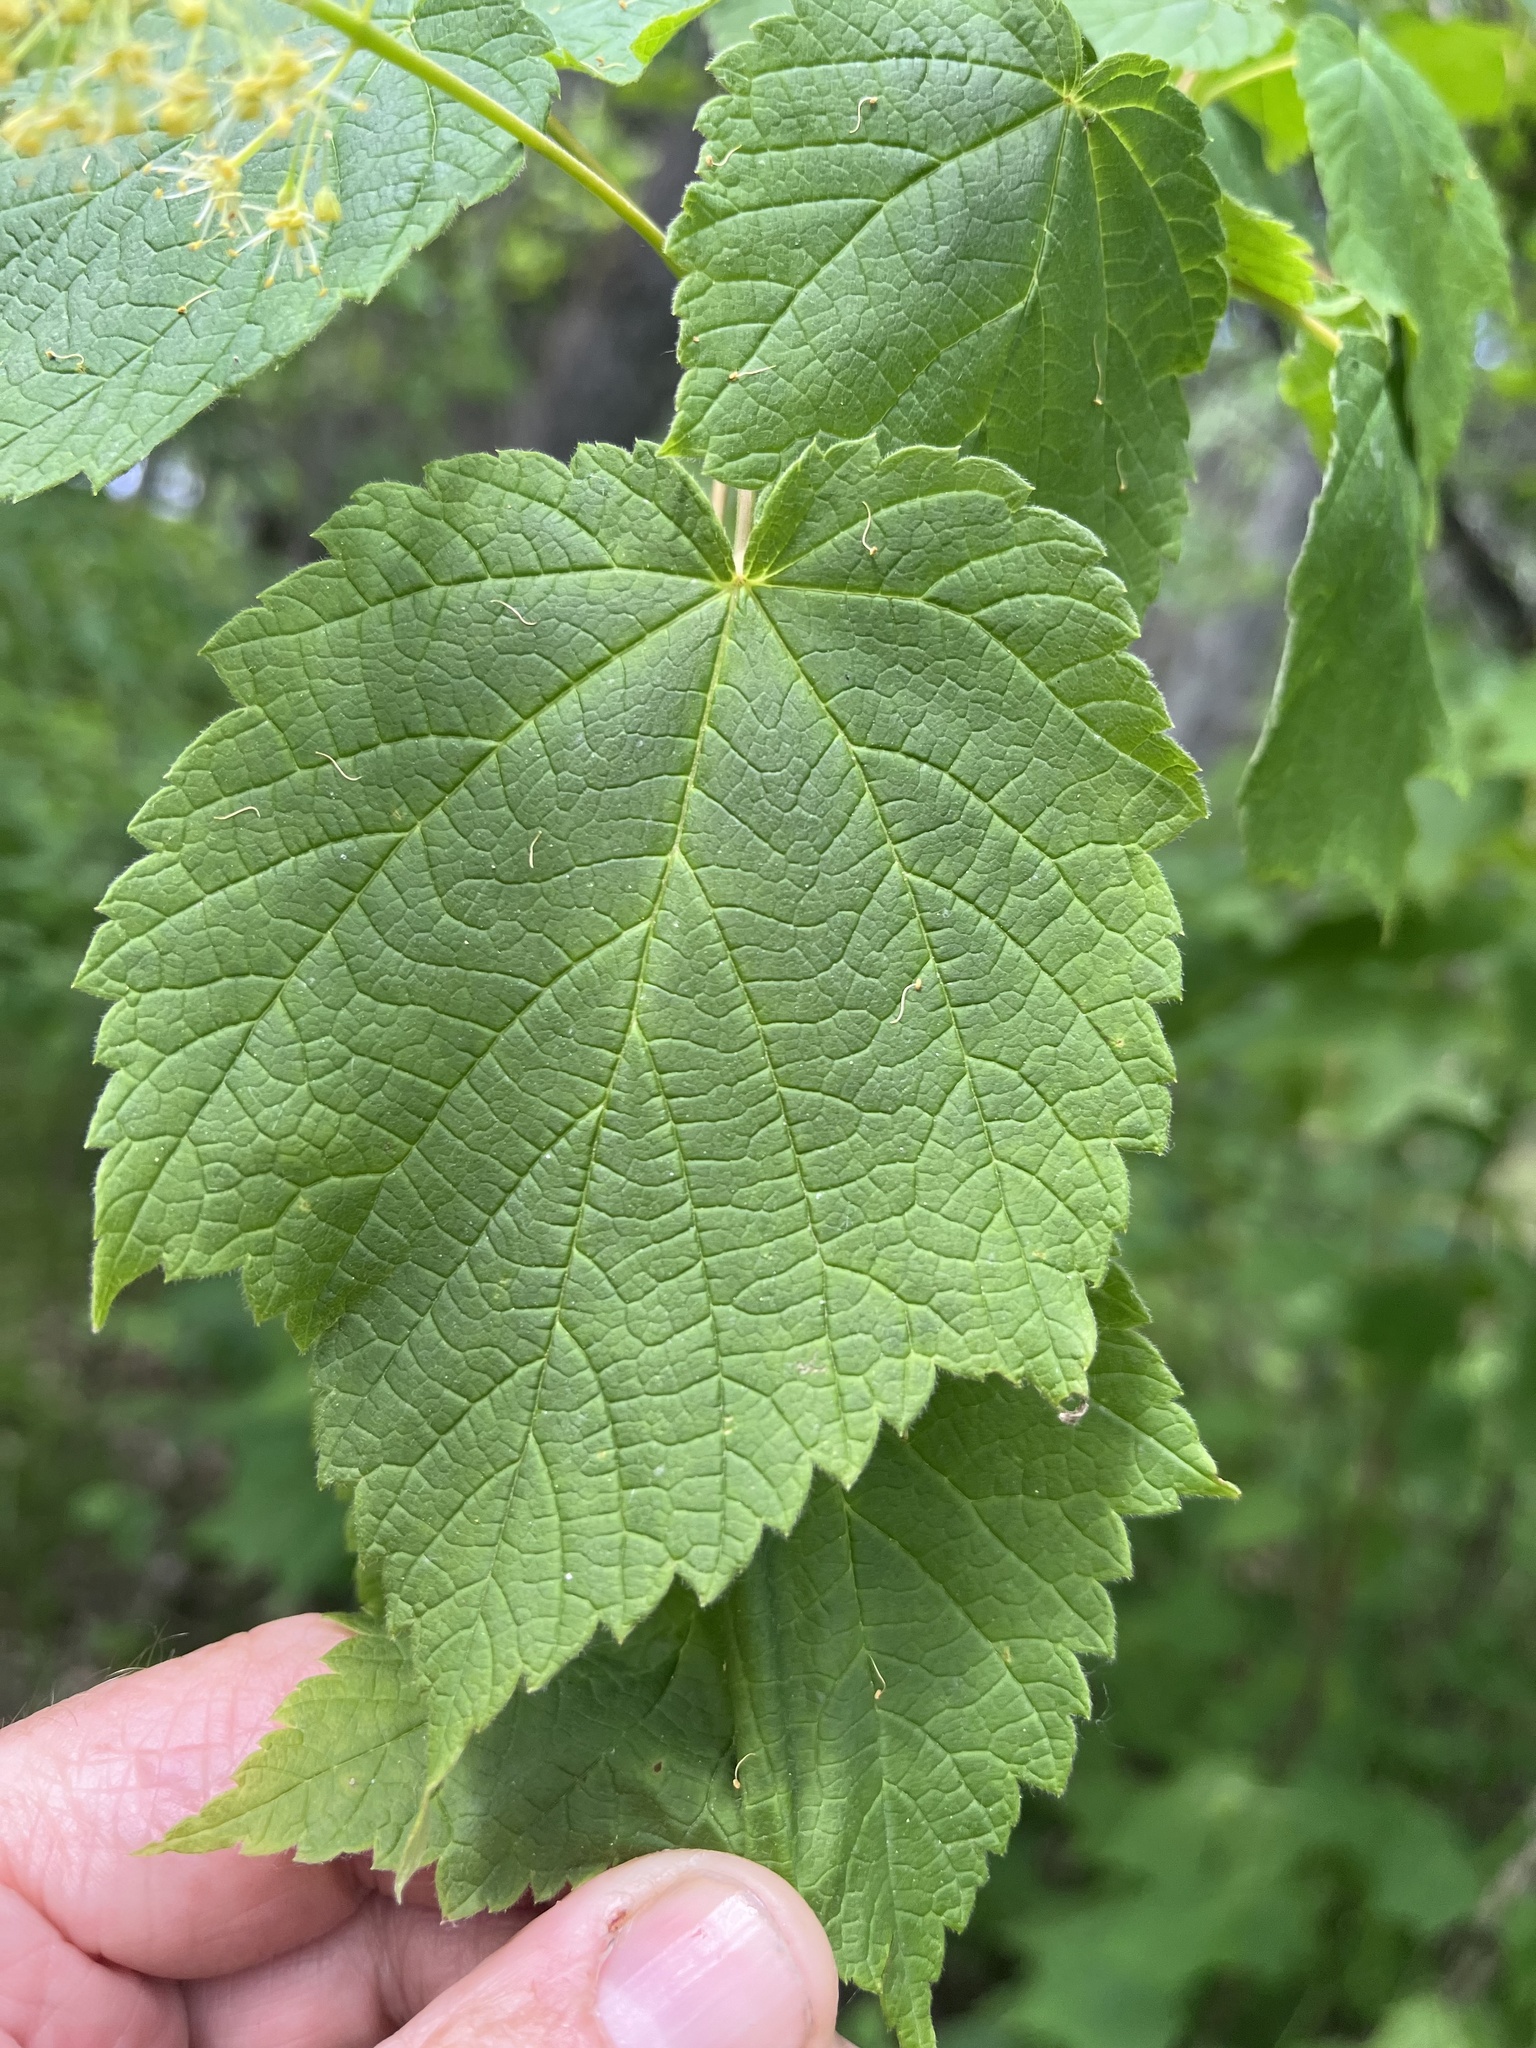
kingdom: Plantae
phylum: Tracheophyta
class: Magnoliopsida
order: Sapindales
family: Sapindaceae
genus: Acer
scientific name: Acer spicatum
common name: Mountain maple
